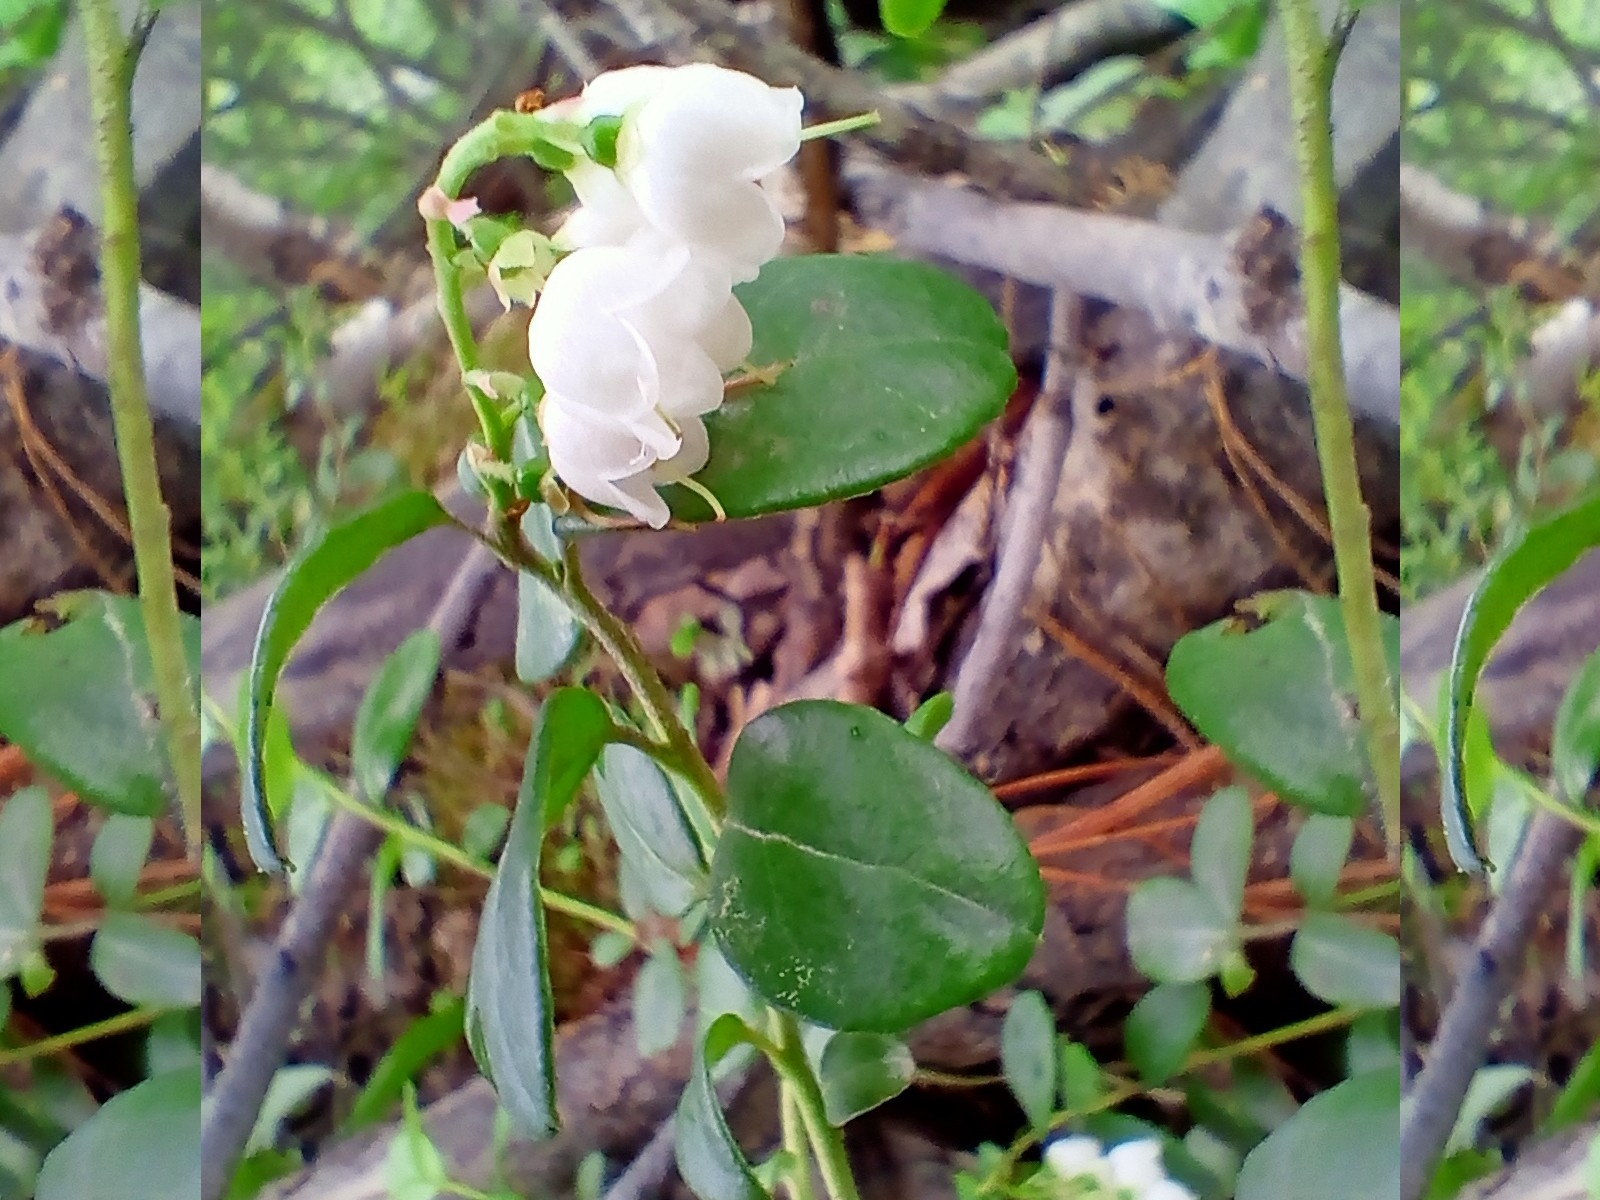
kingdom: Plantae
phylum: Tracheophyta
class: Magnoliopsida
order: Ericales
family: Ericaceae
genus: Vaccinium
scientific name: Vaccinium vitis-idaea
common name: Cowberry
